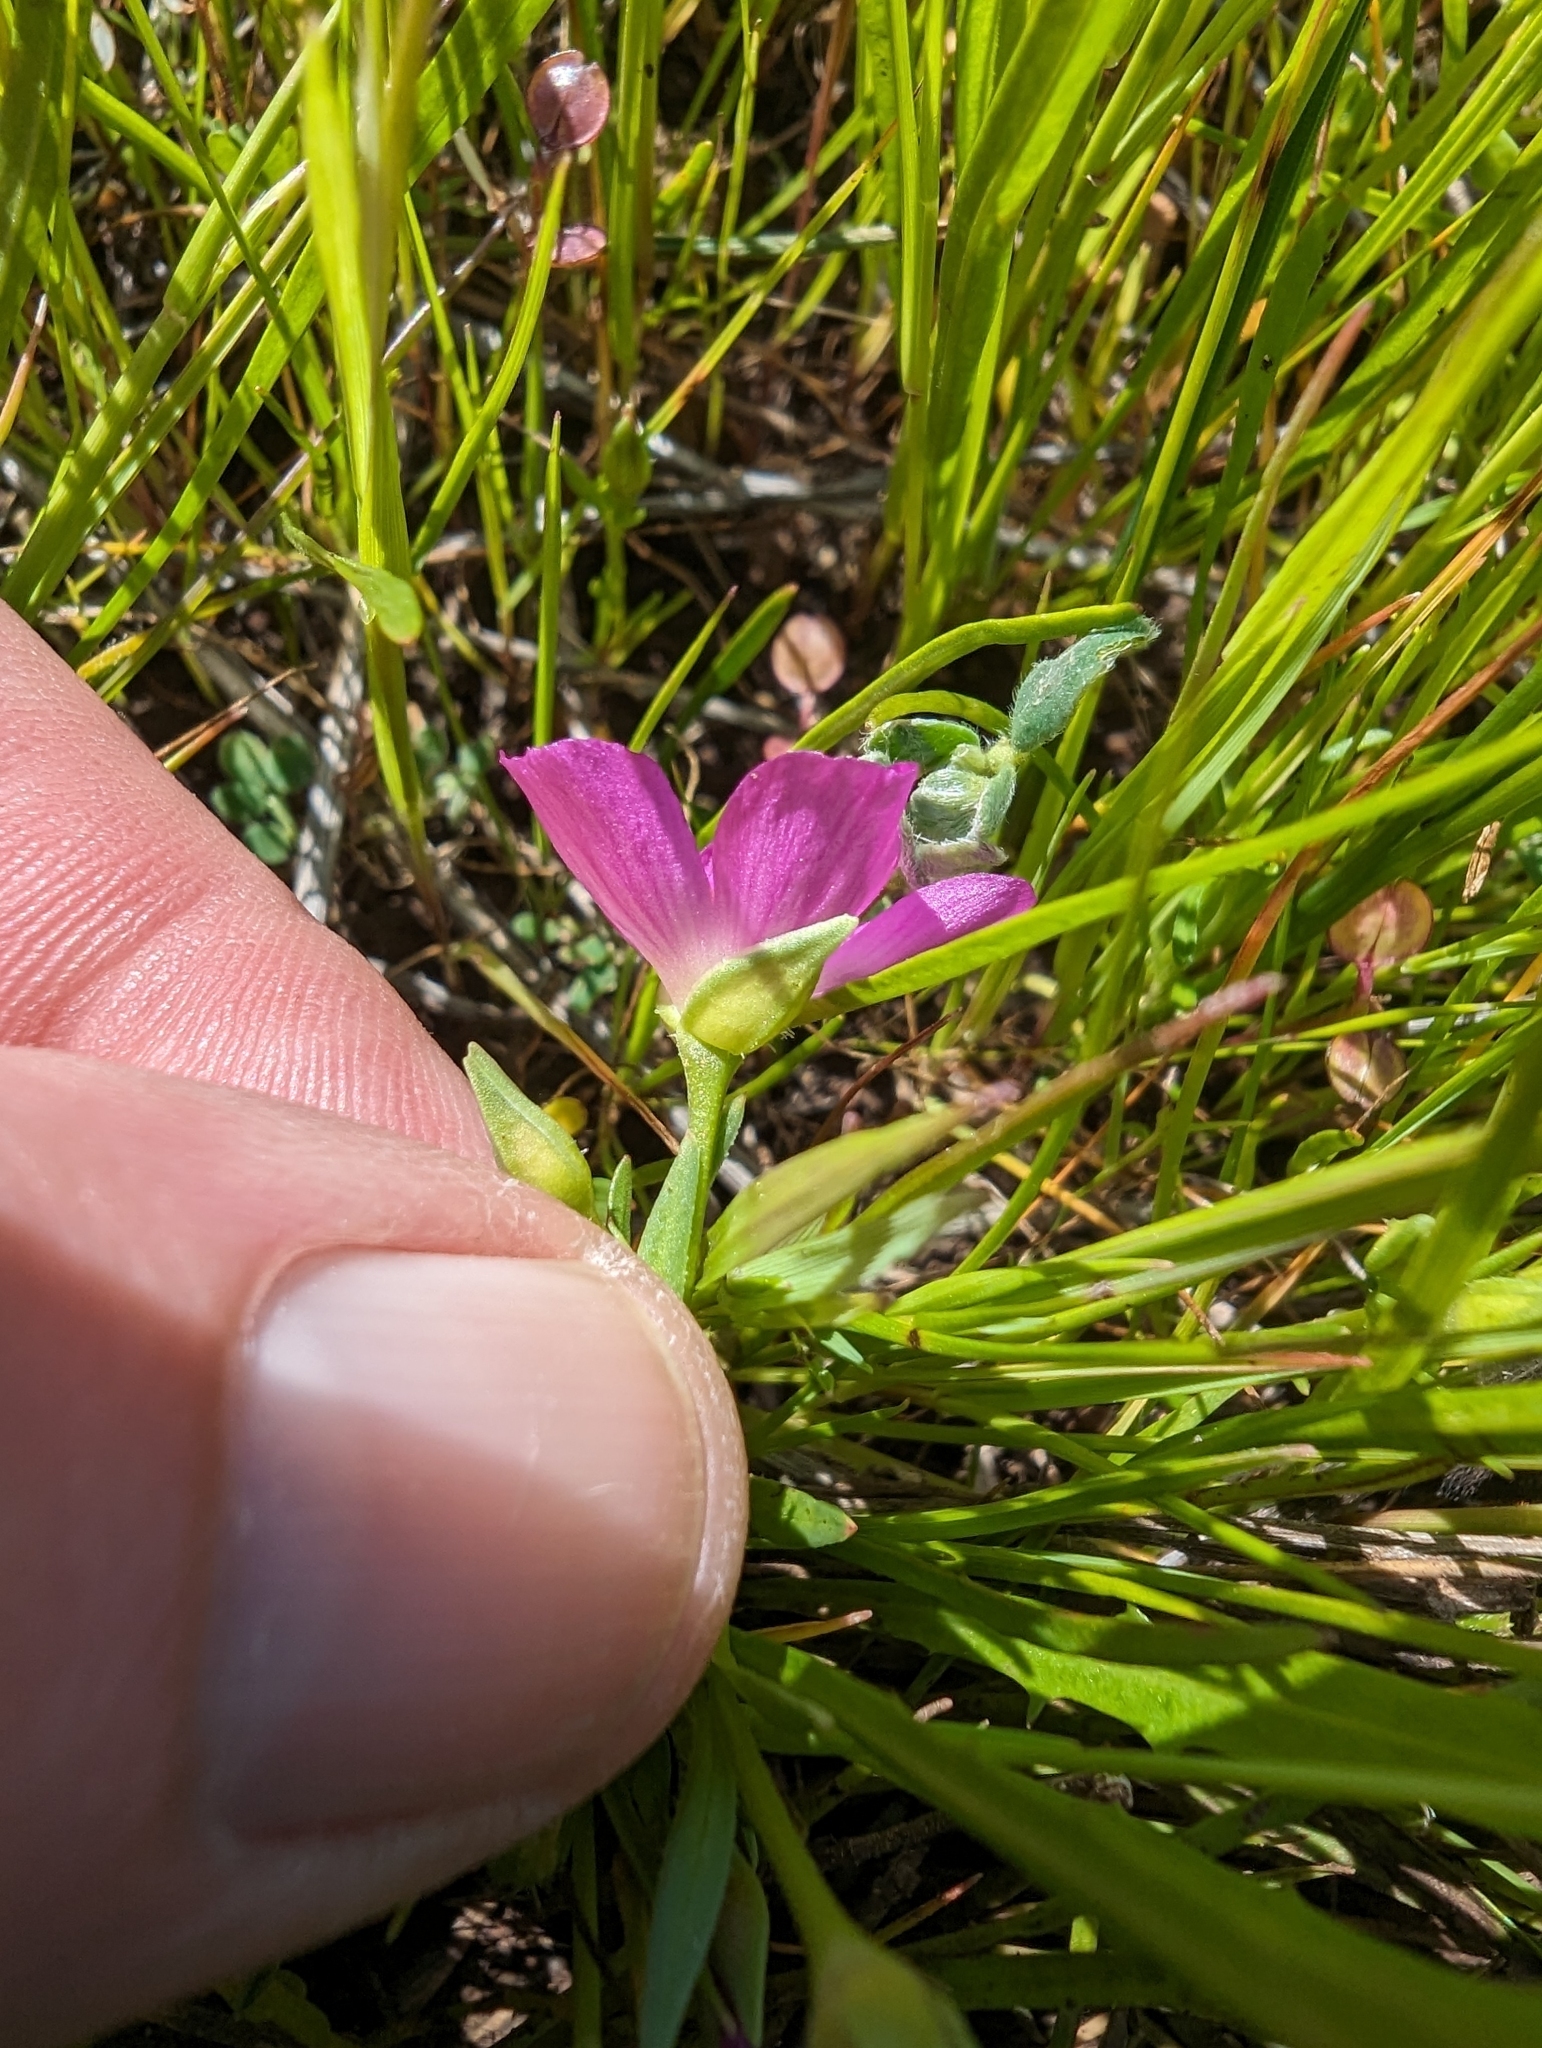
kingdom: Plantae
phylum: Tracheophyta
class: Magnoliopsida
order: Caryophyllales
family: Montiaceae
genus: Calandrinia
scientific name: Calandrinia menziesii
